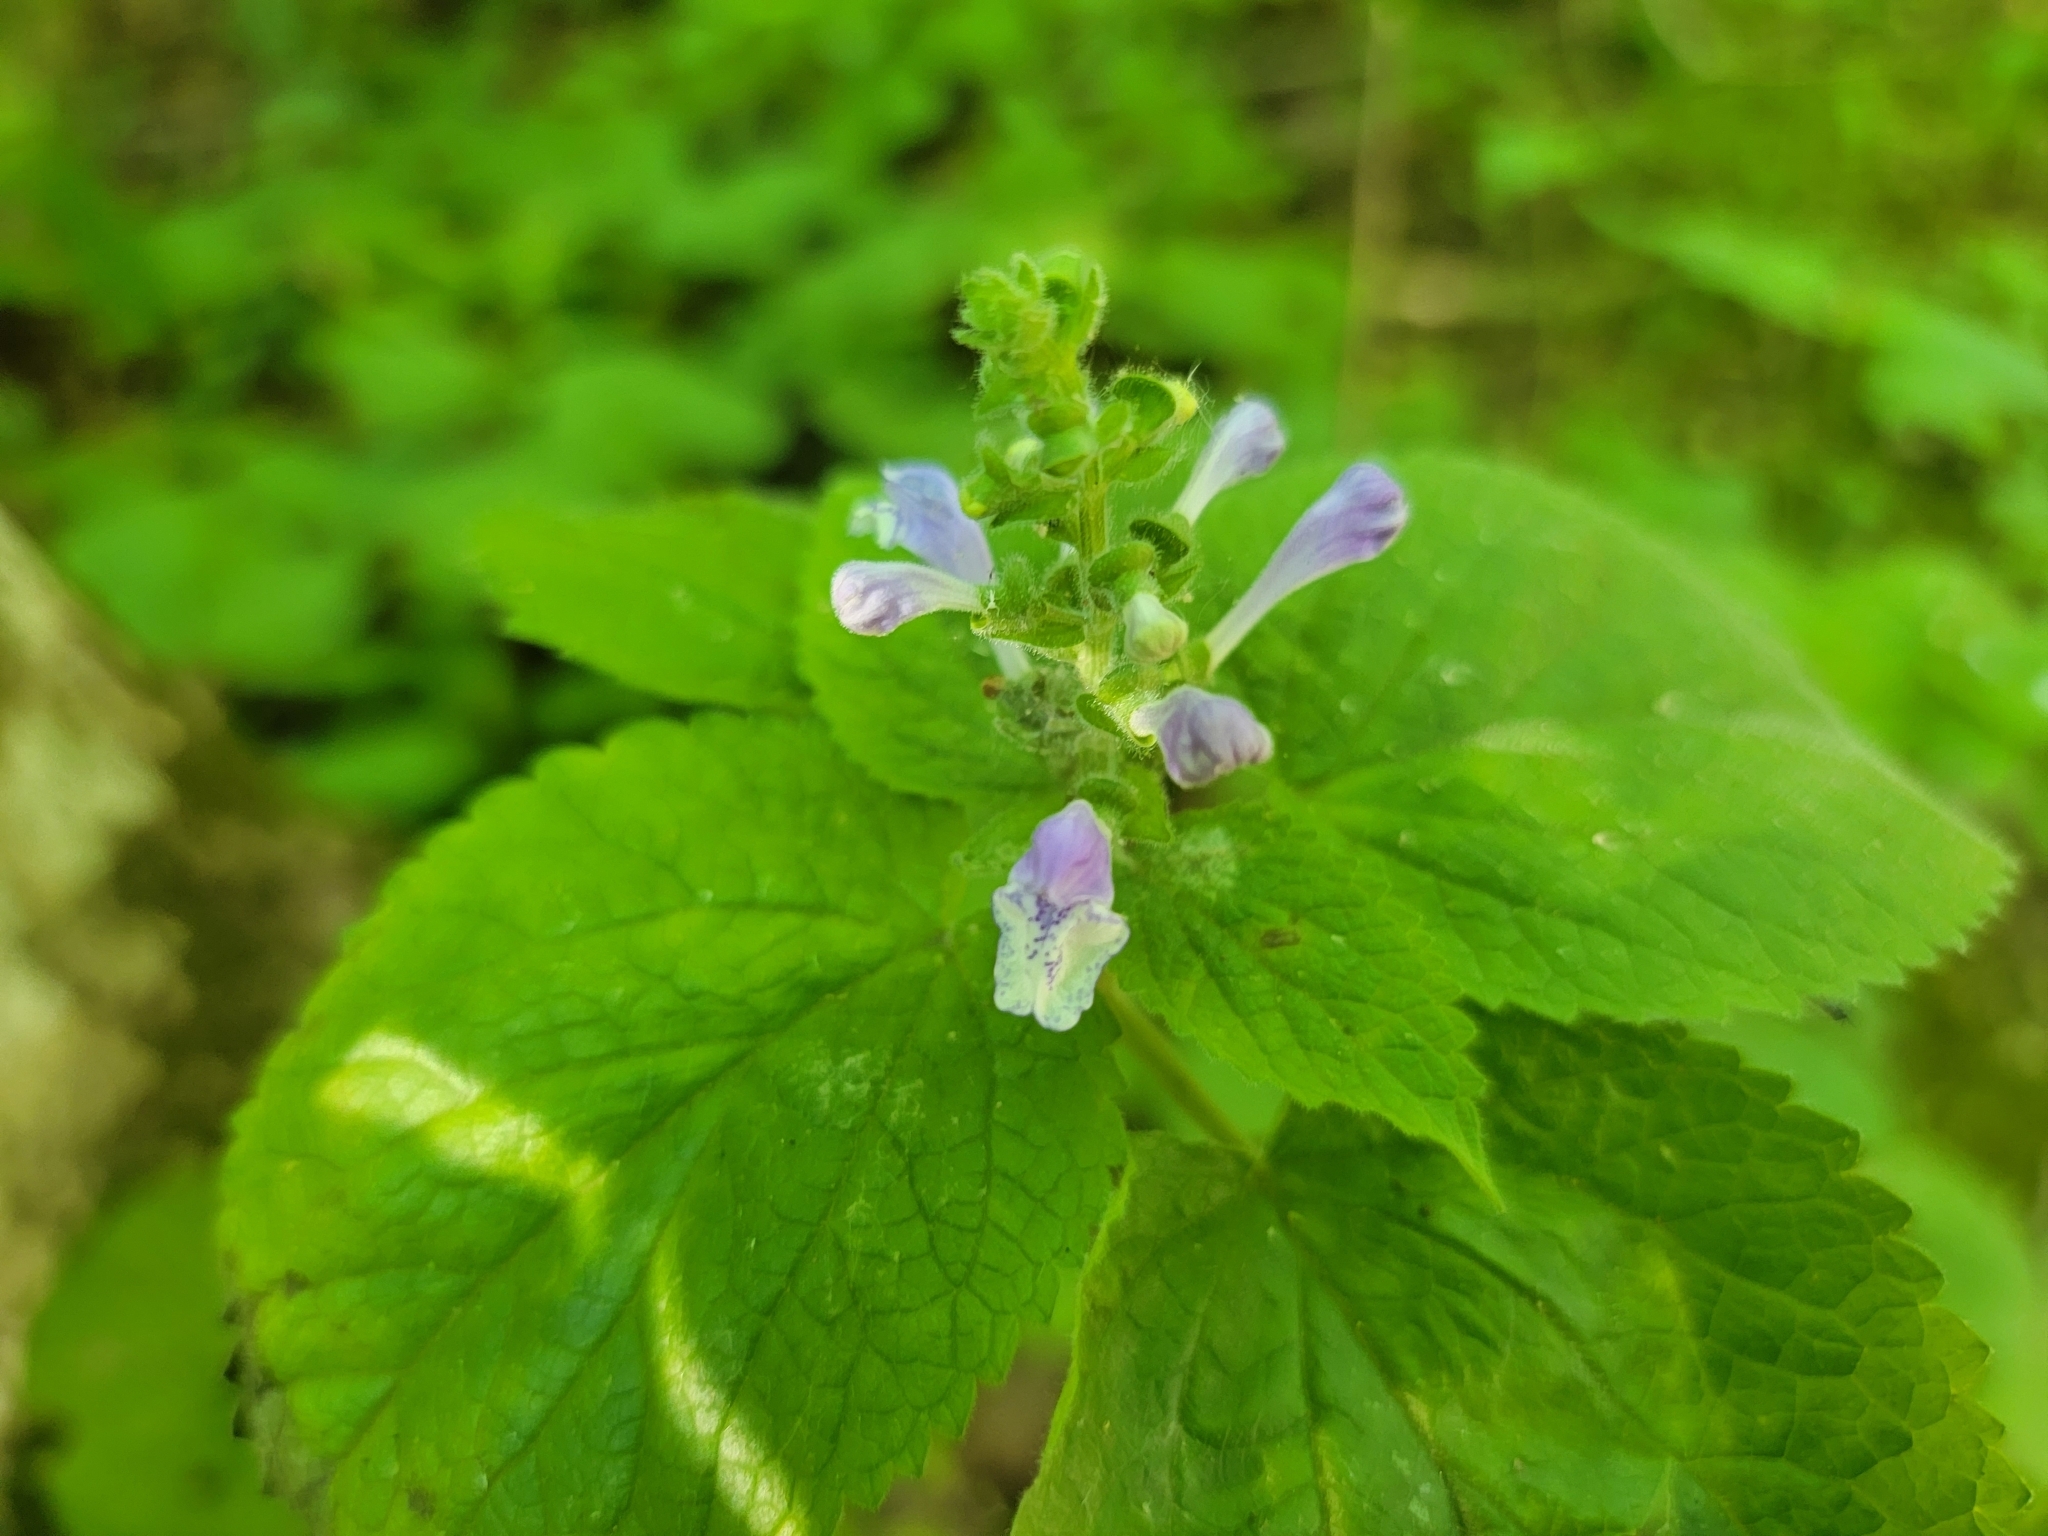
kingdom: Plantae
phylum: Tracheophyta
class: Magnoliopsida
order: Lamiales
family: Lamiaceae
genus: Scutellaria
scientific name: Scutellaria ovata
